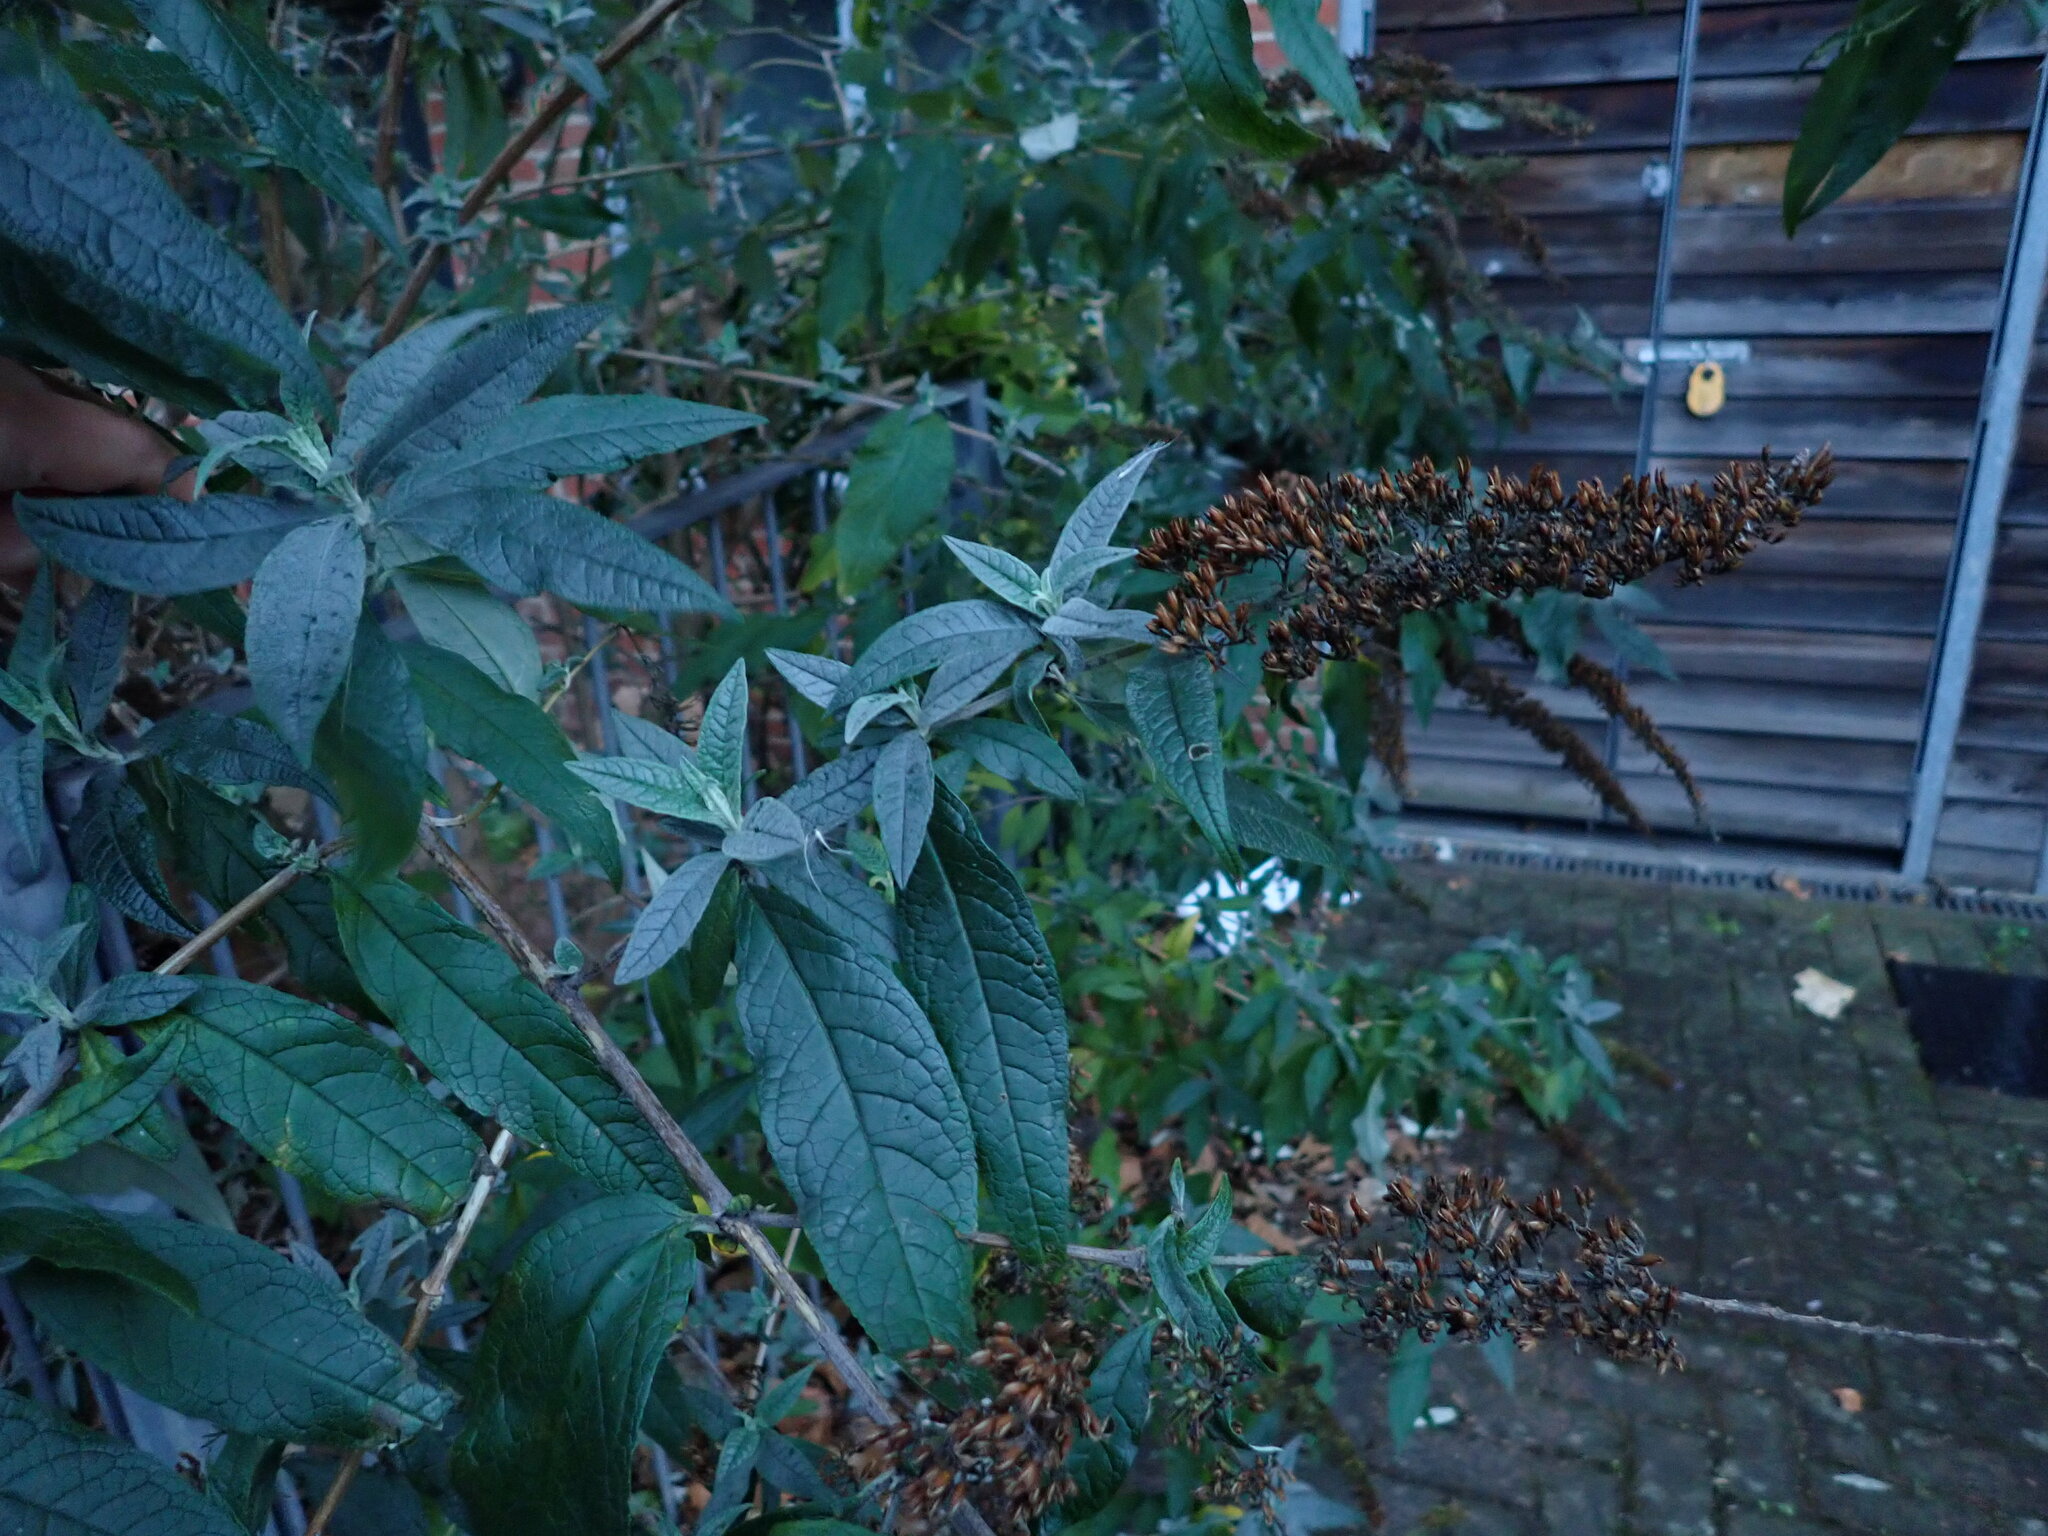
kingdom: Plantae
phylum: Tracheophyta
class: Magnoliopsida
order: Lamiales
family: Scrophulariaceae
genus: Buddleja
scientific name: Buddleja davidii
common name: Butterfly-bush
